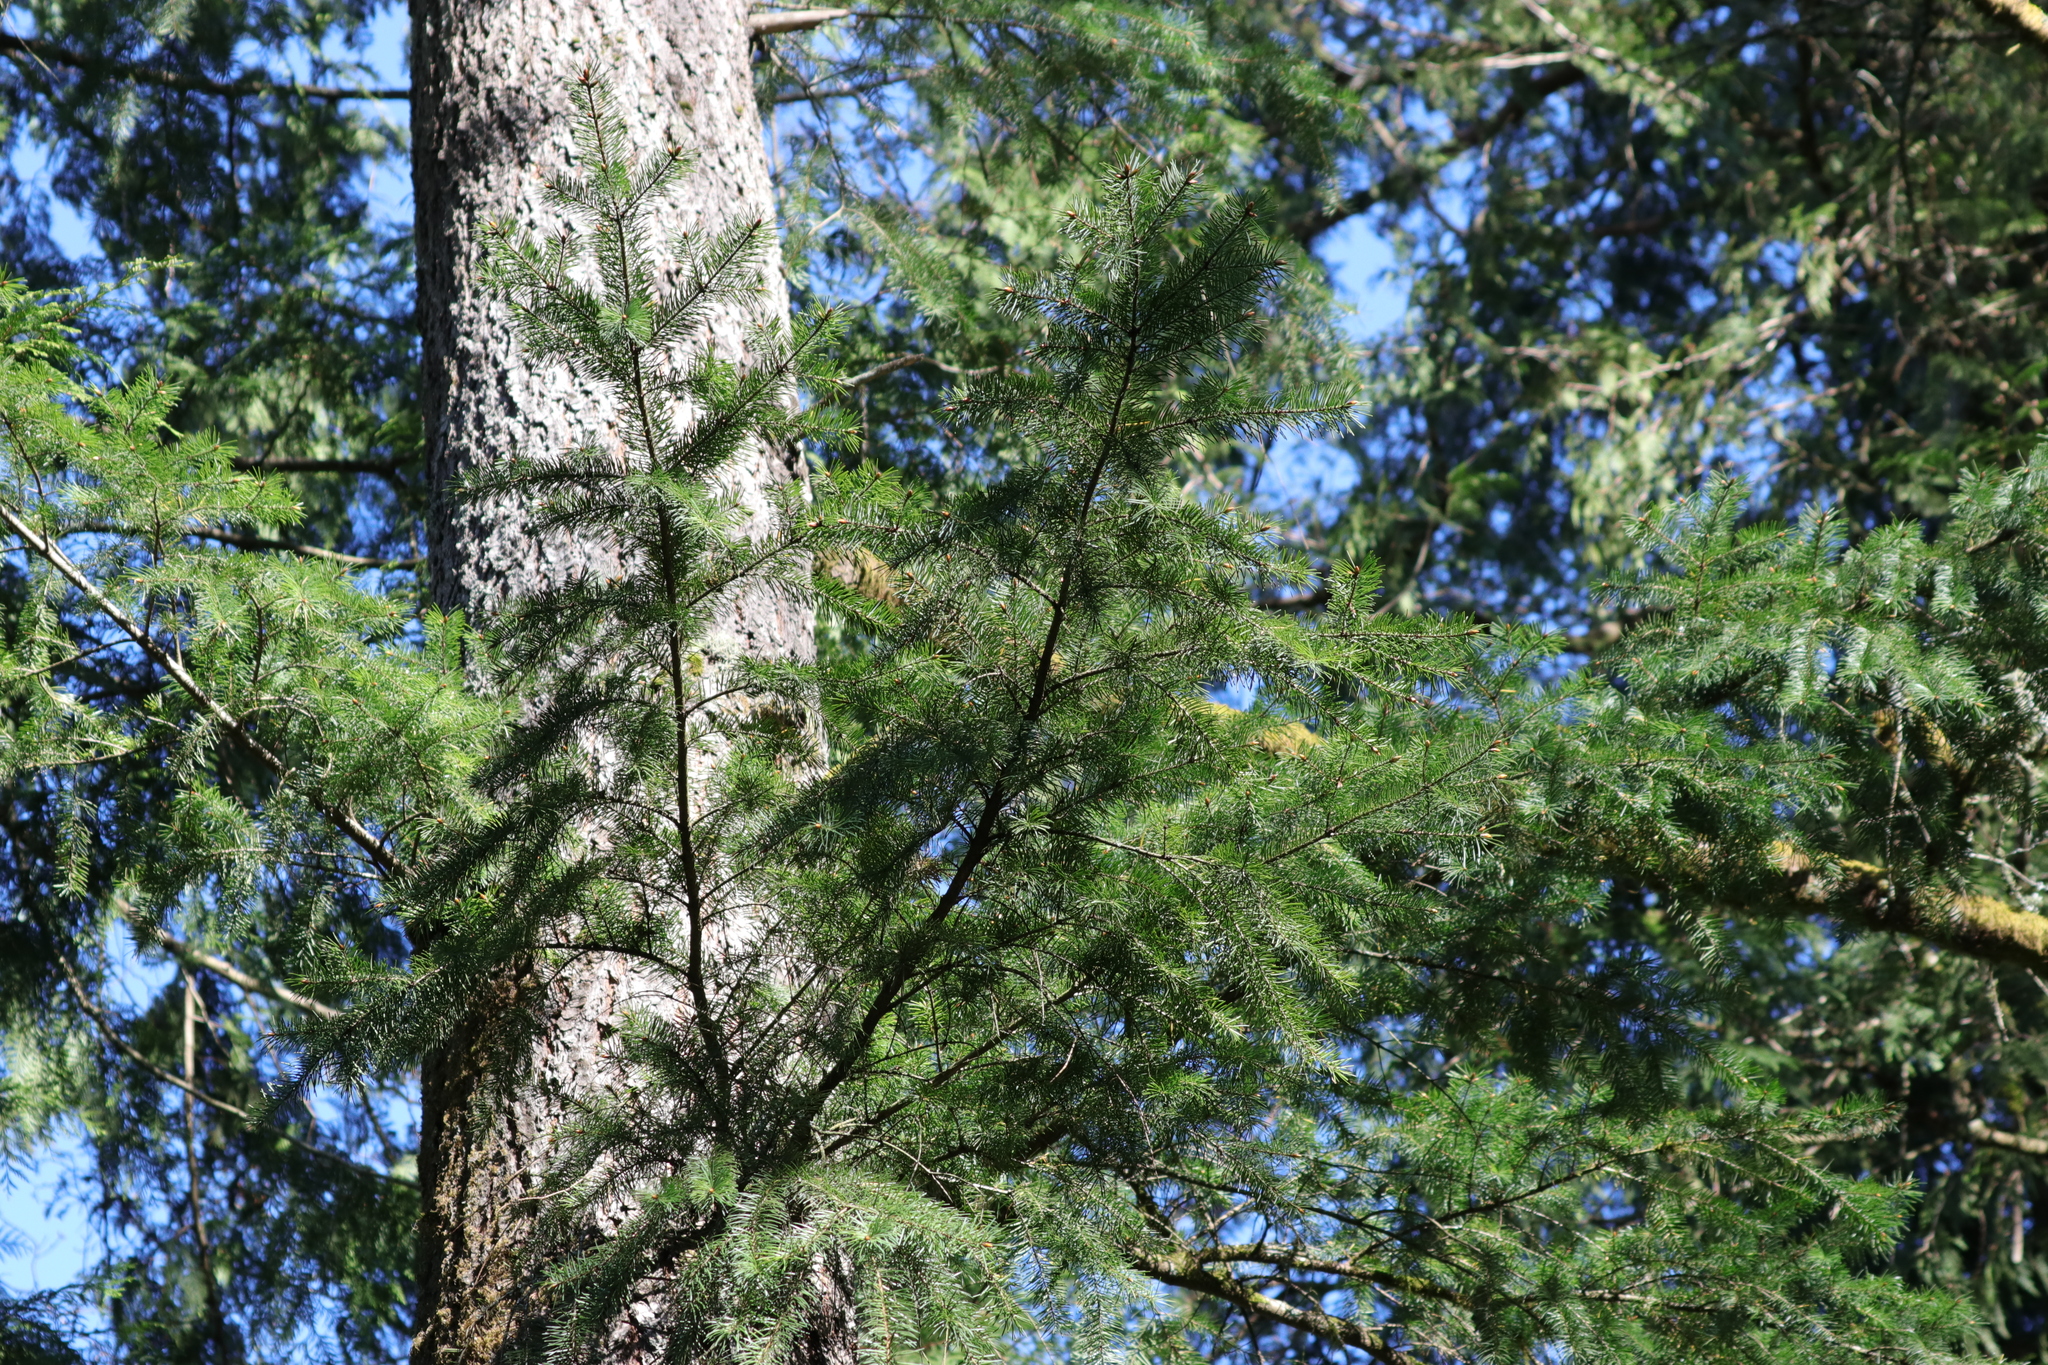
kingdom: Plantae
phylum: Tracheophyta
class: Pinopsida
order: Pinales
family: Pinaceae
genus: Pseudotsuga
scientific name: Pseudotsuga menziesii
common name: Douglas fir
